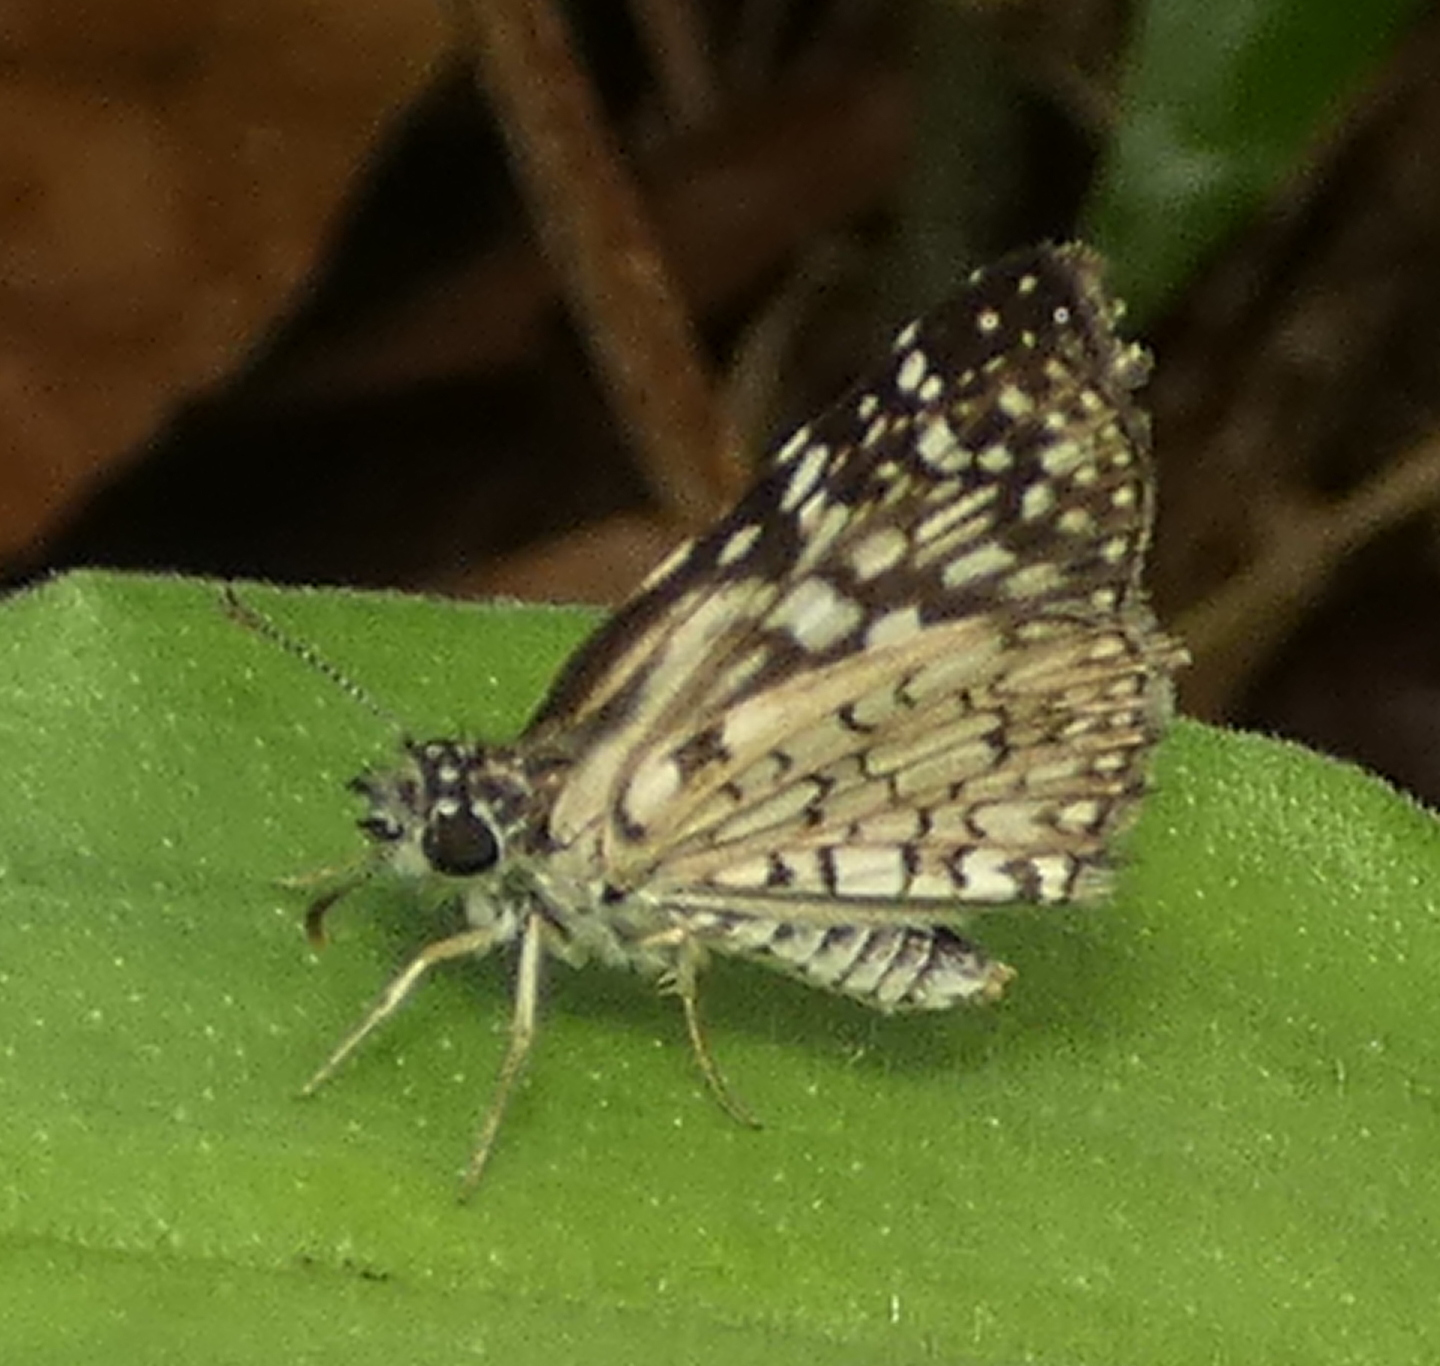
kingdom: Animalia
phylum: Arthropoda
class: Insecta
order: Lepidoptera
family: Hesperiidae
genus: Pyrgus
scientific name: Pyrgus oileus
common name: Tropical checkered-skipper
